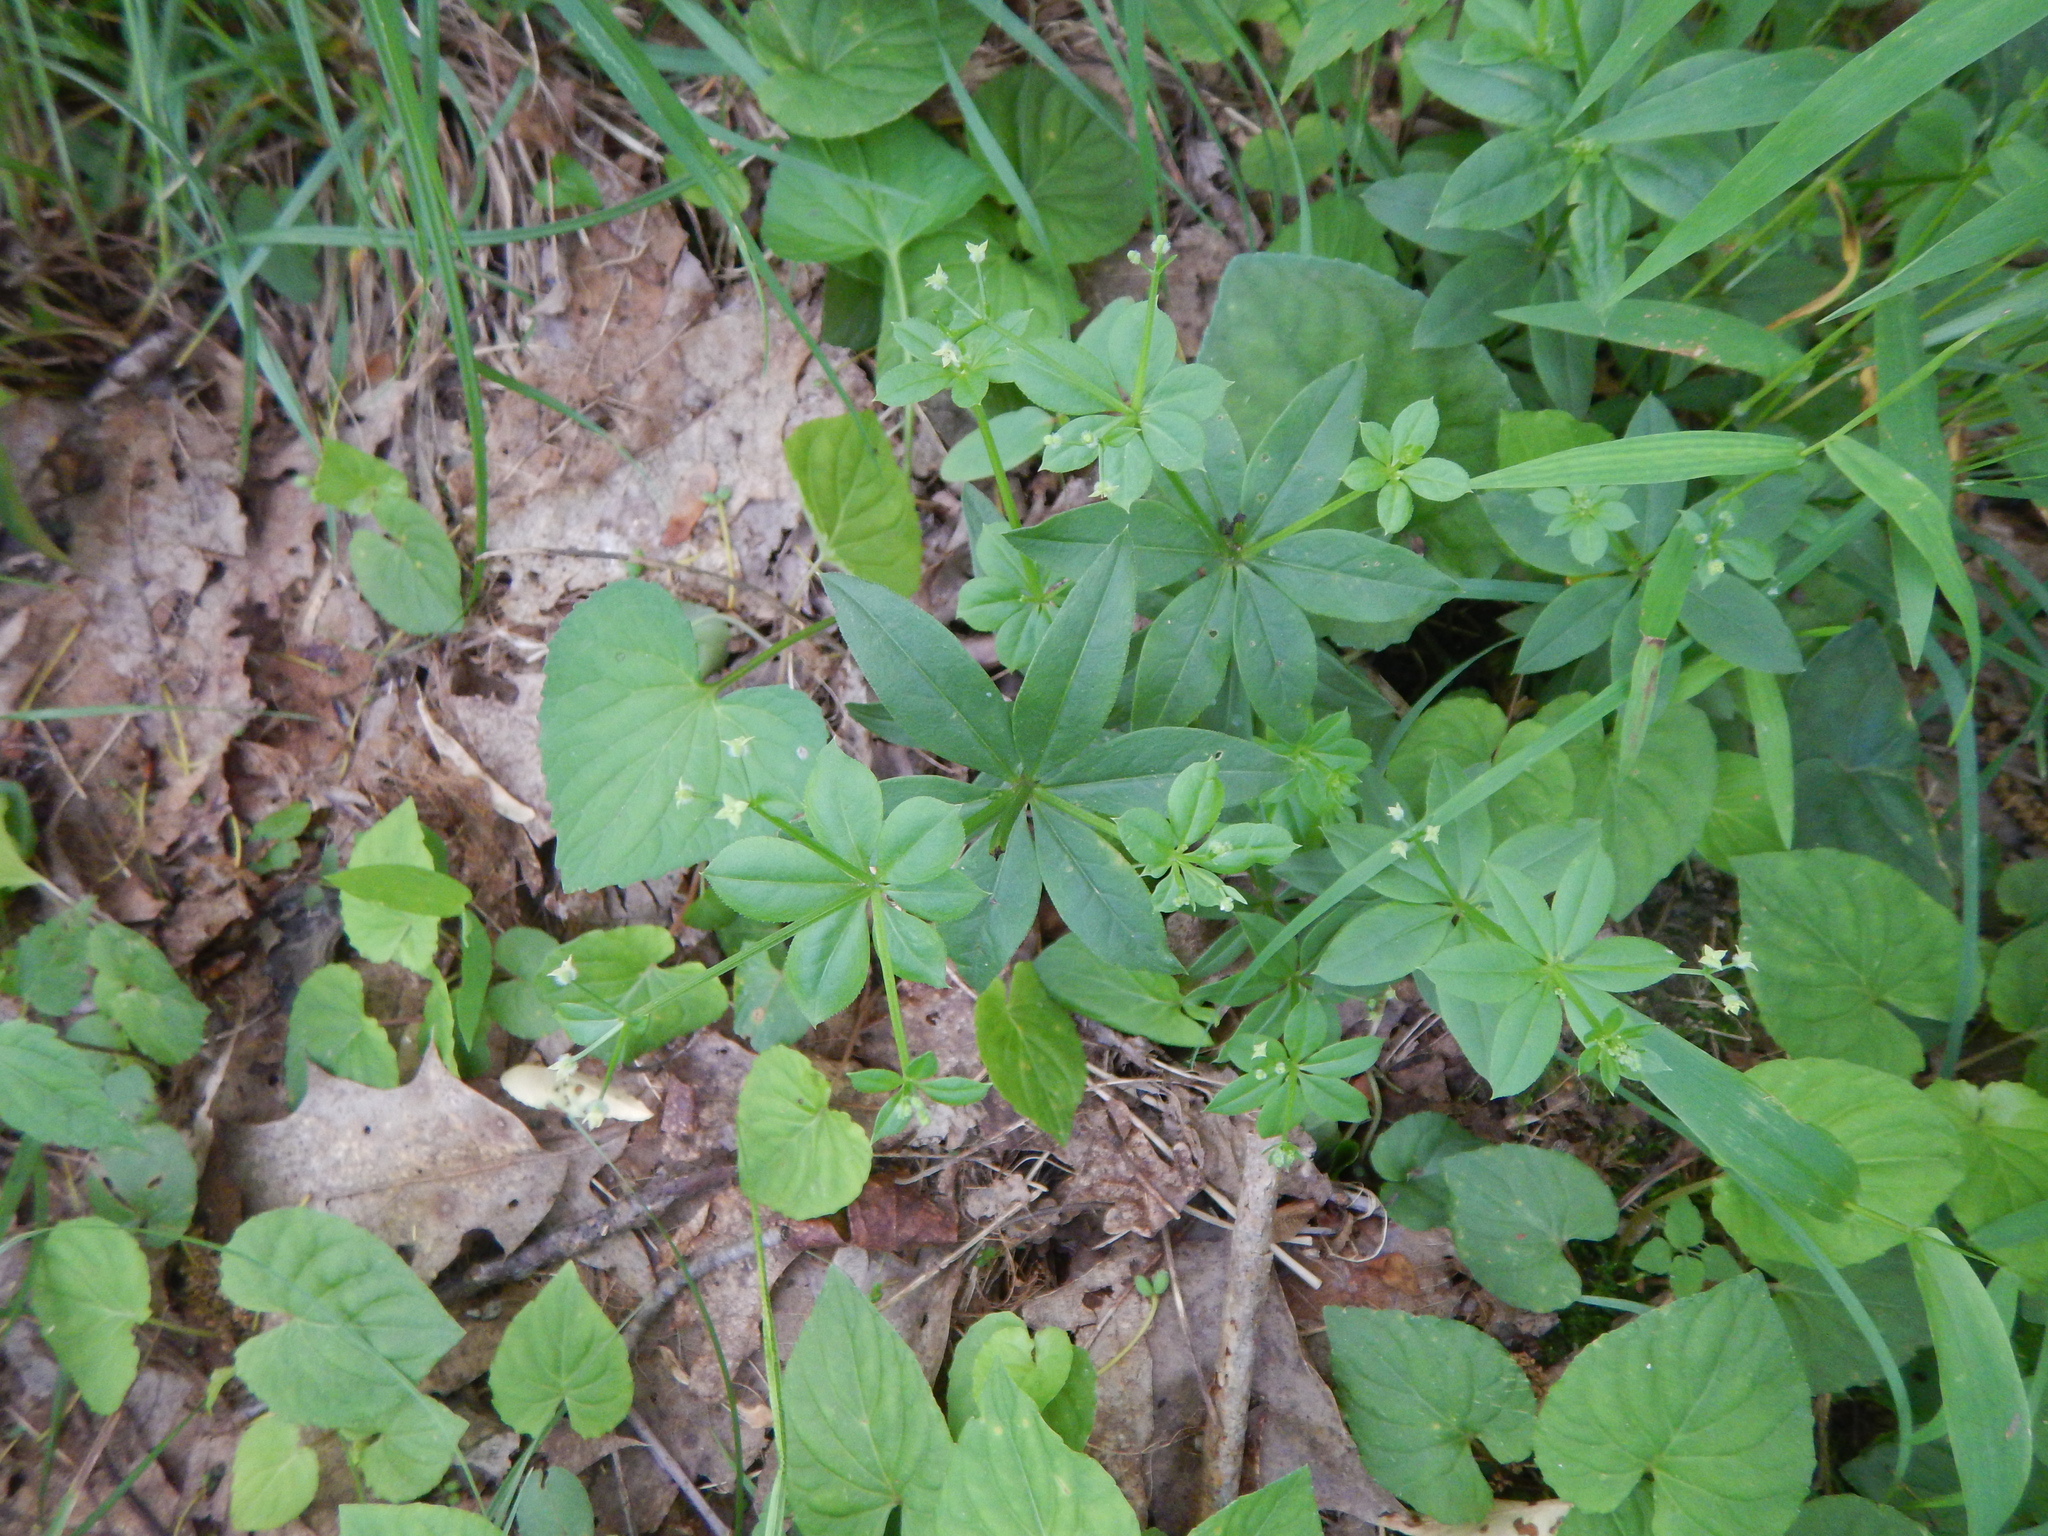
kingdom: Plantae
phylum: Tracheophyta
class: Magnoliopsida
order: Gentianales
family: Rubiaceae
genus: Galium
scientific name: Galium triflorum
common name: Fragrant bedstraw
